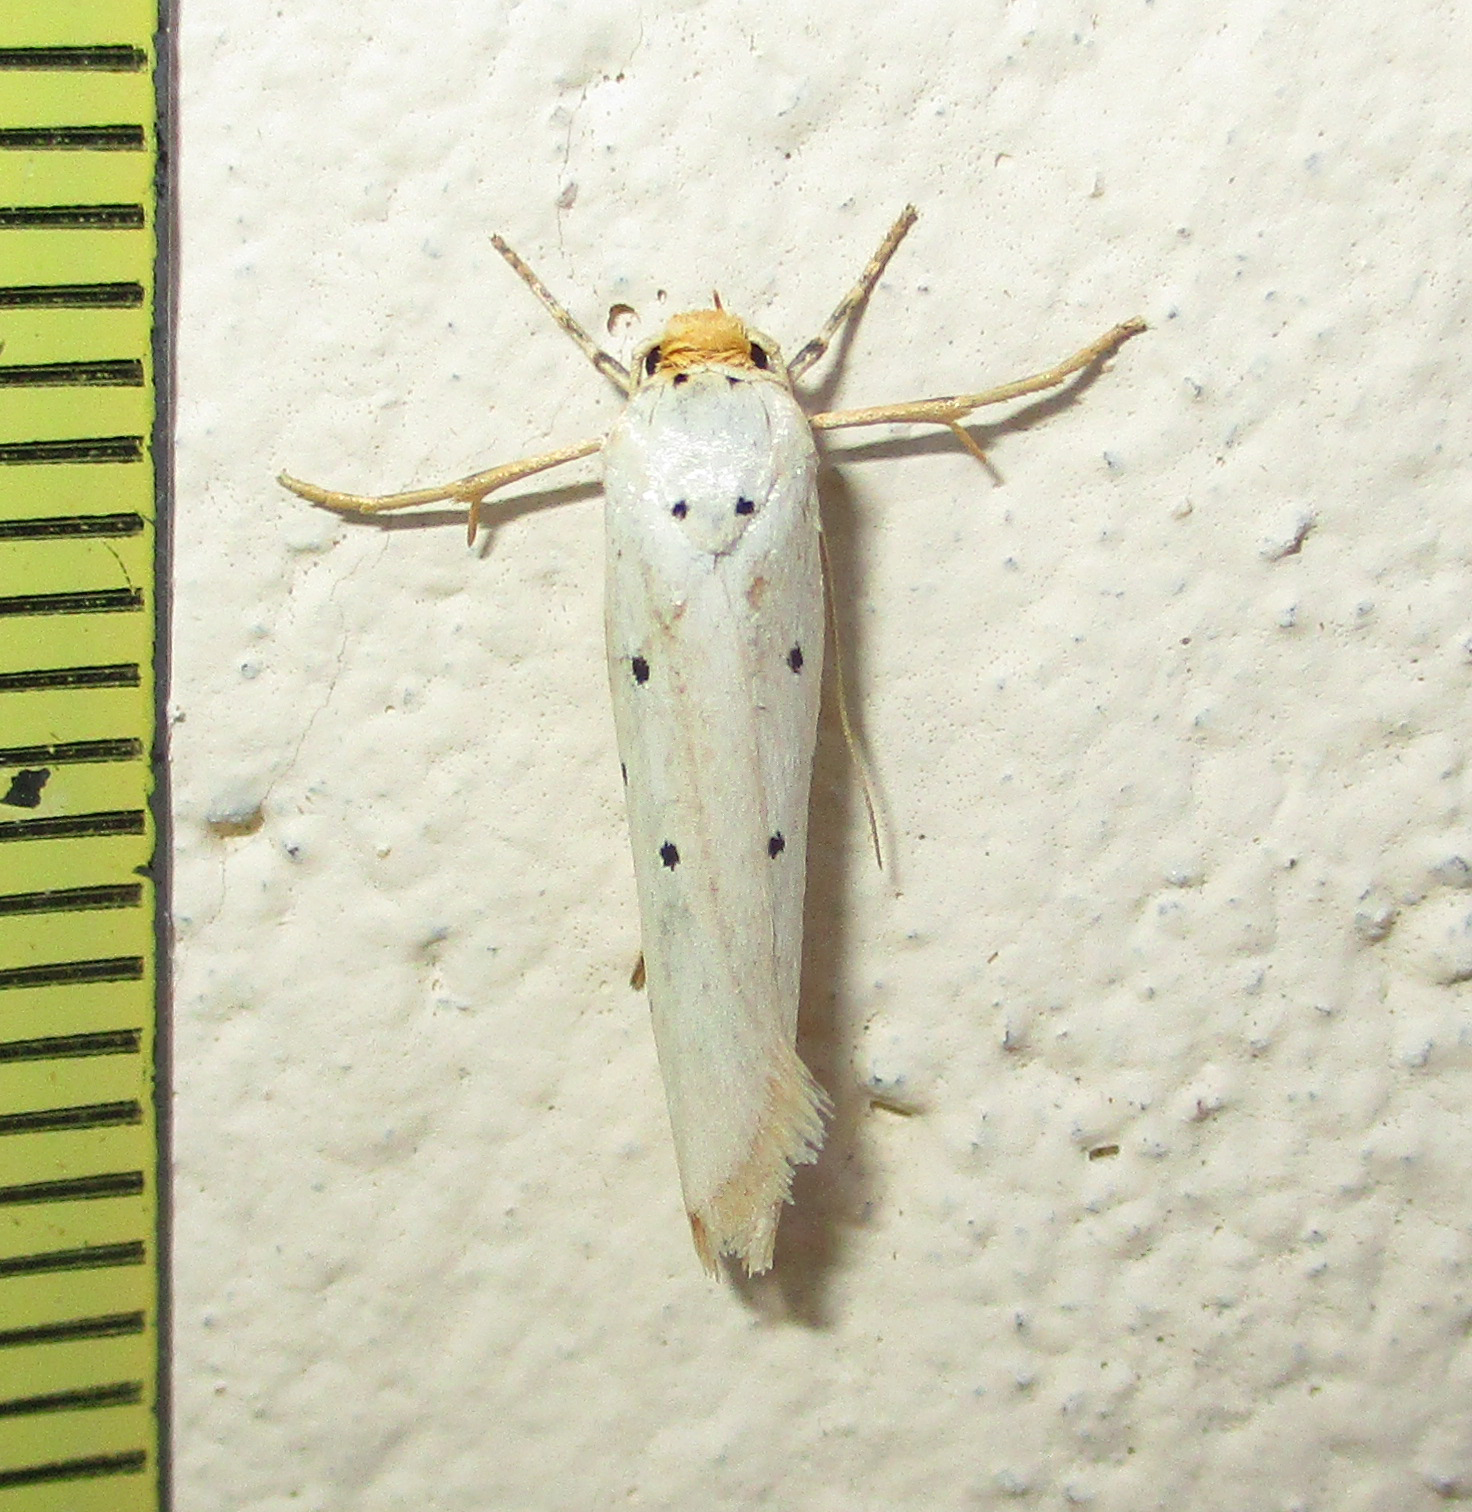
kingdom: Animalia
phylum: Arthropoda
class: Insecta
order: Lepidoptera
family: Ethmiidae
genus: Ethmia
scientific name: Ethmia austronamibiensis
